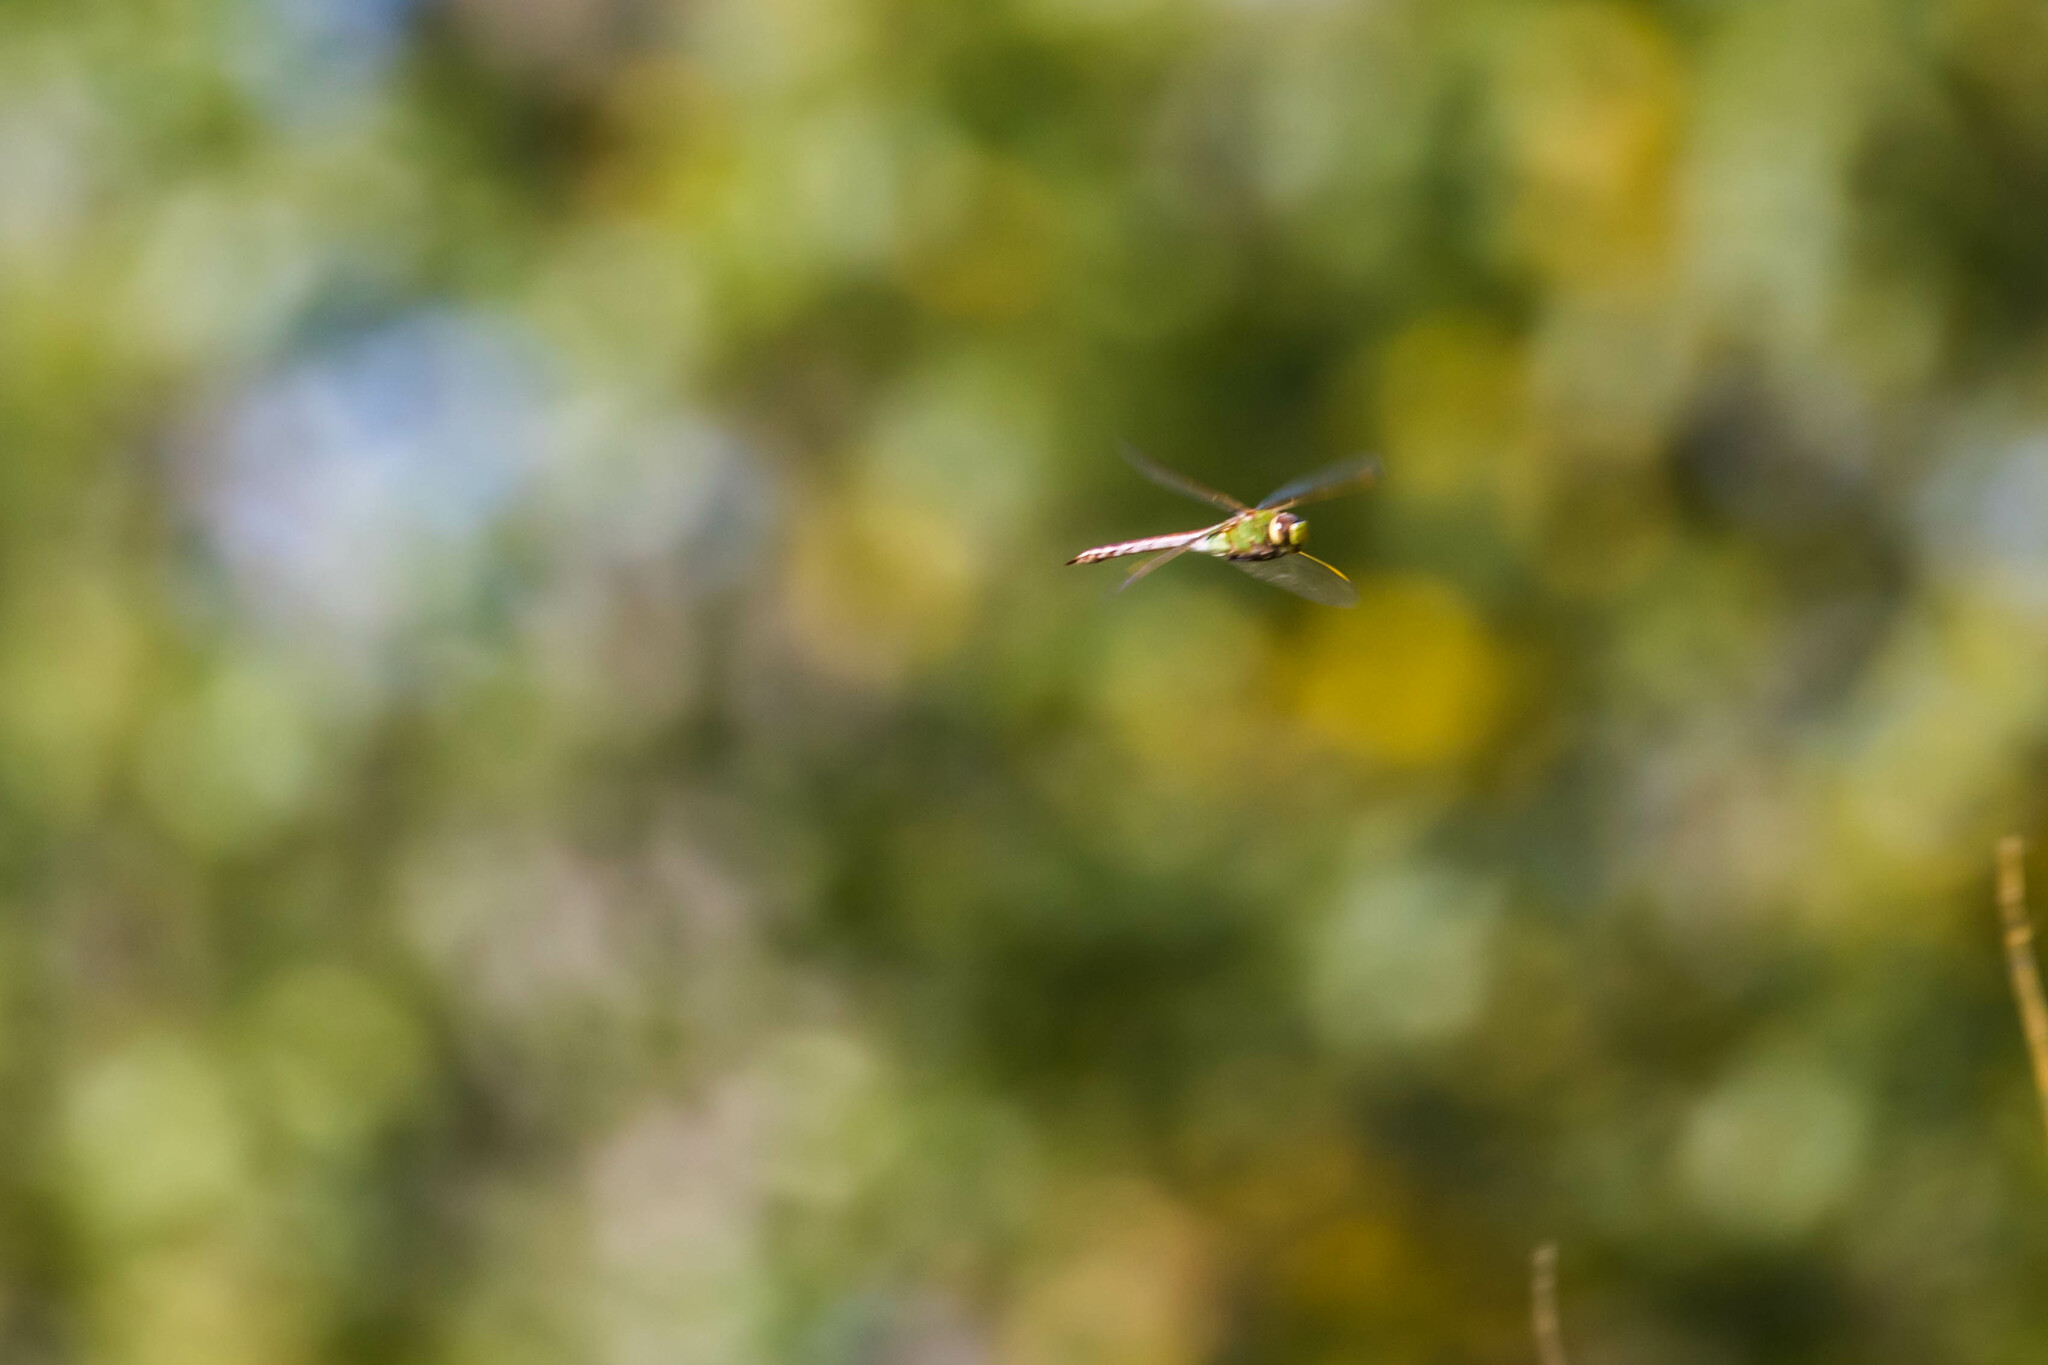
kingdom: Animalia
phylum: Arthropoda
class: Insecta
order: Odonata
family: Aeshnidae
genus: Anax
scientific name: Anax junius
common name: Common green darner
